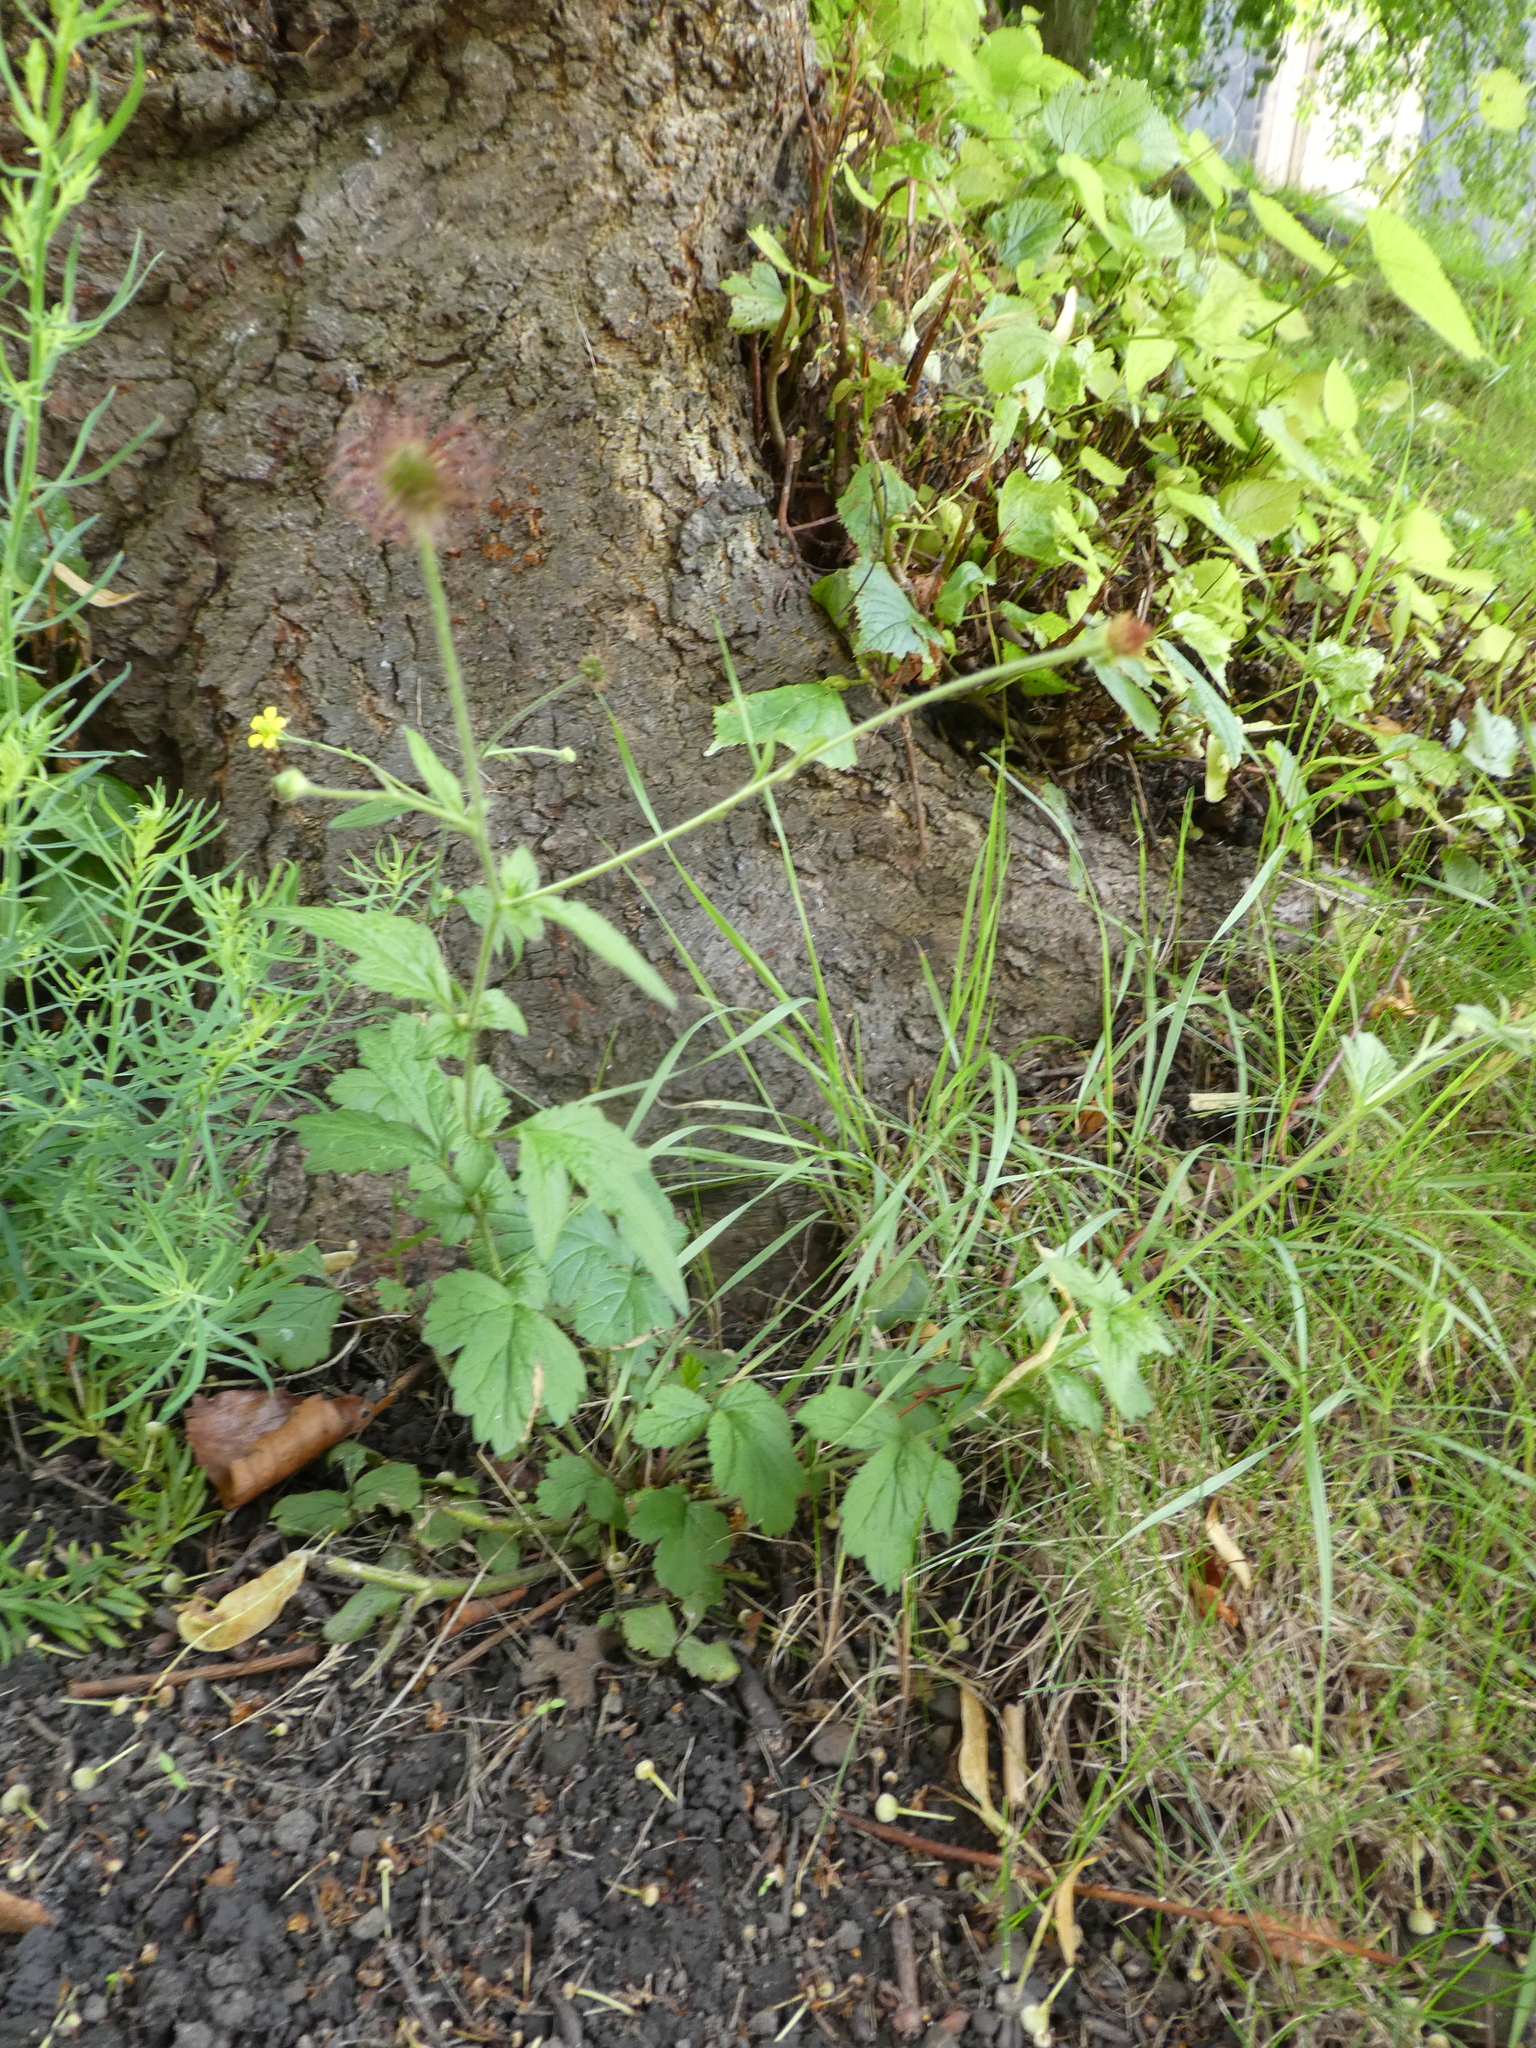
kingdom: Plantae
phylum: Tracheophyta
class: Magnoliopsida
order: Rosales
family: Rosaceae
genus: Geum
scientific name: Geum urbanum
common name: Wood avens
